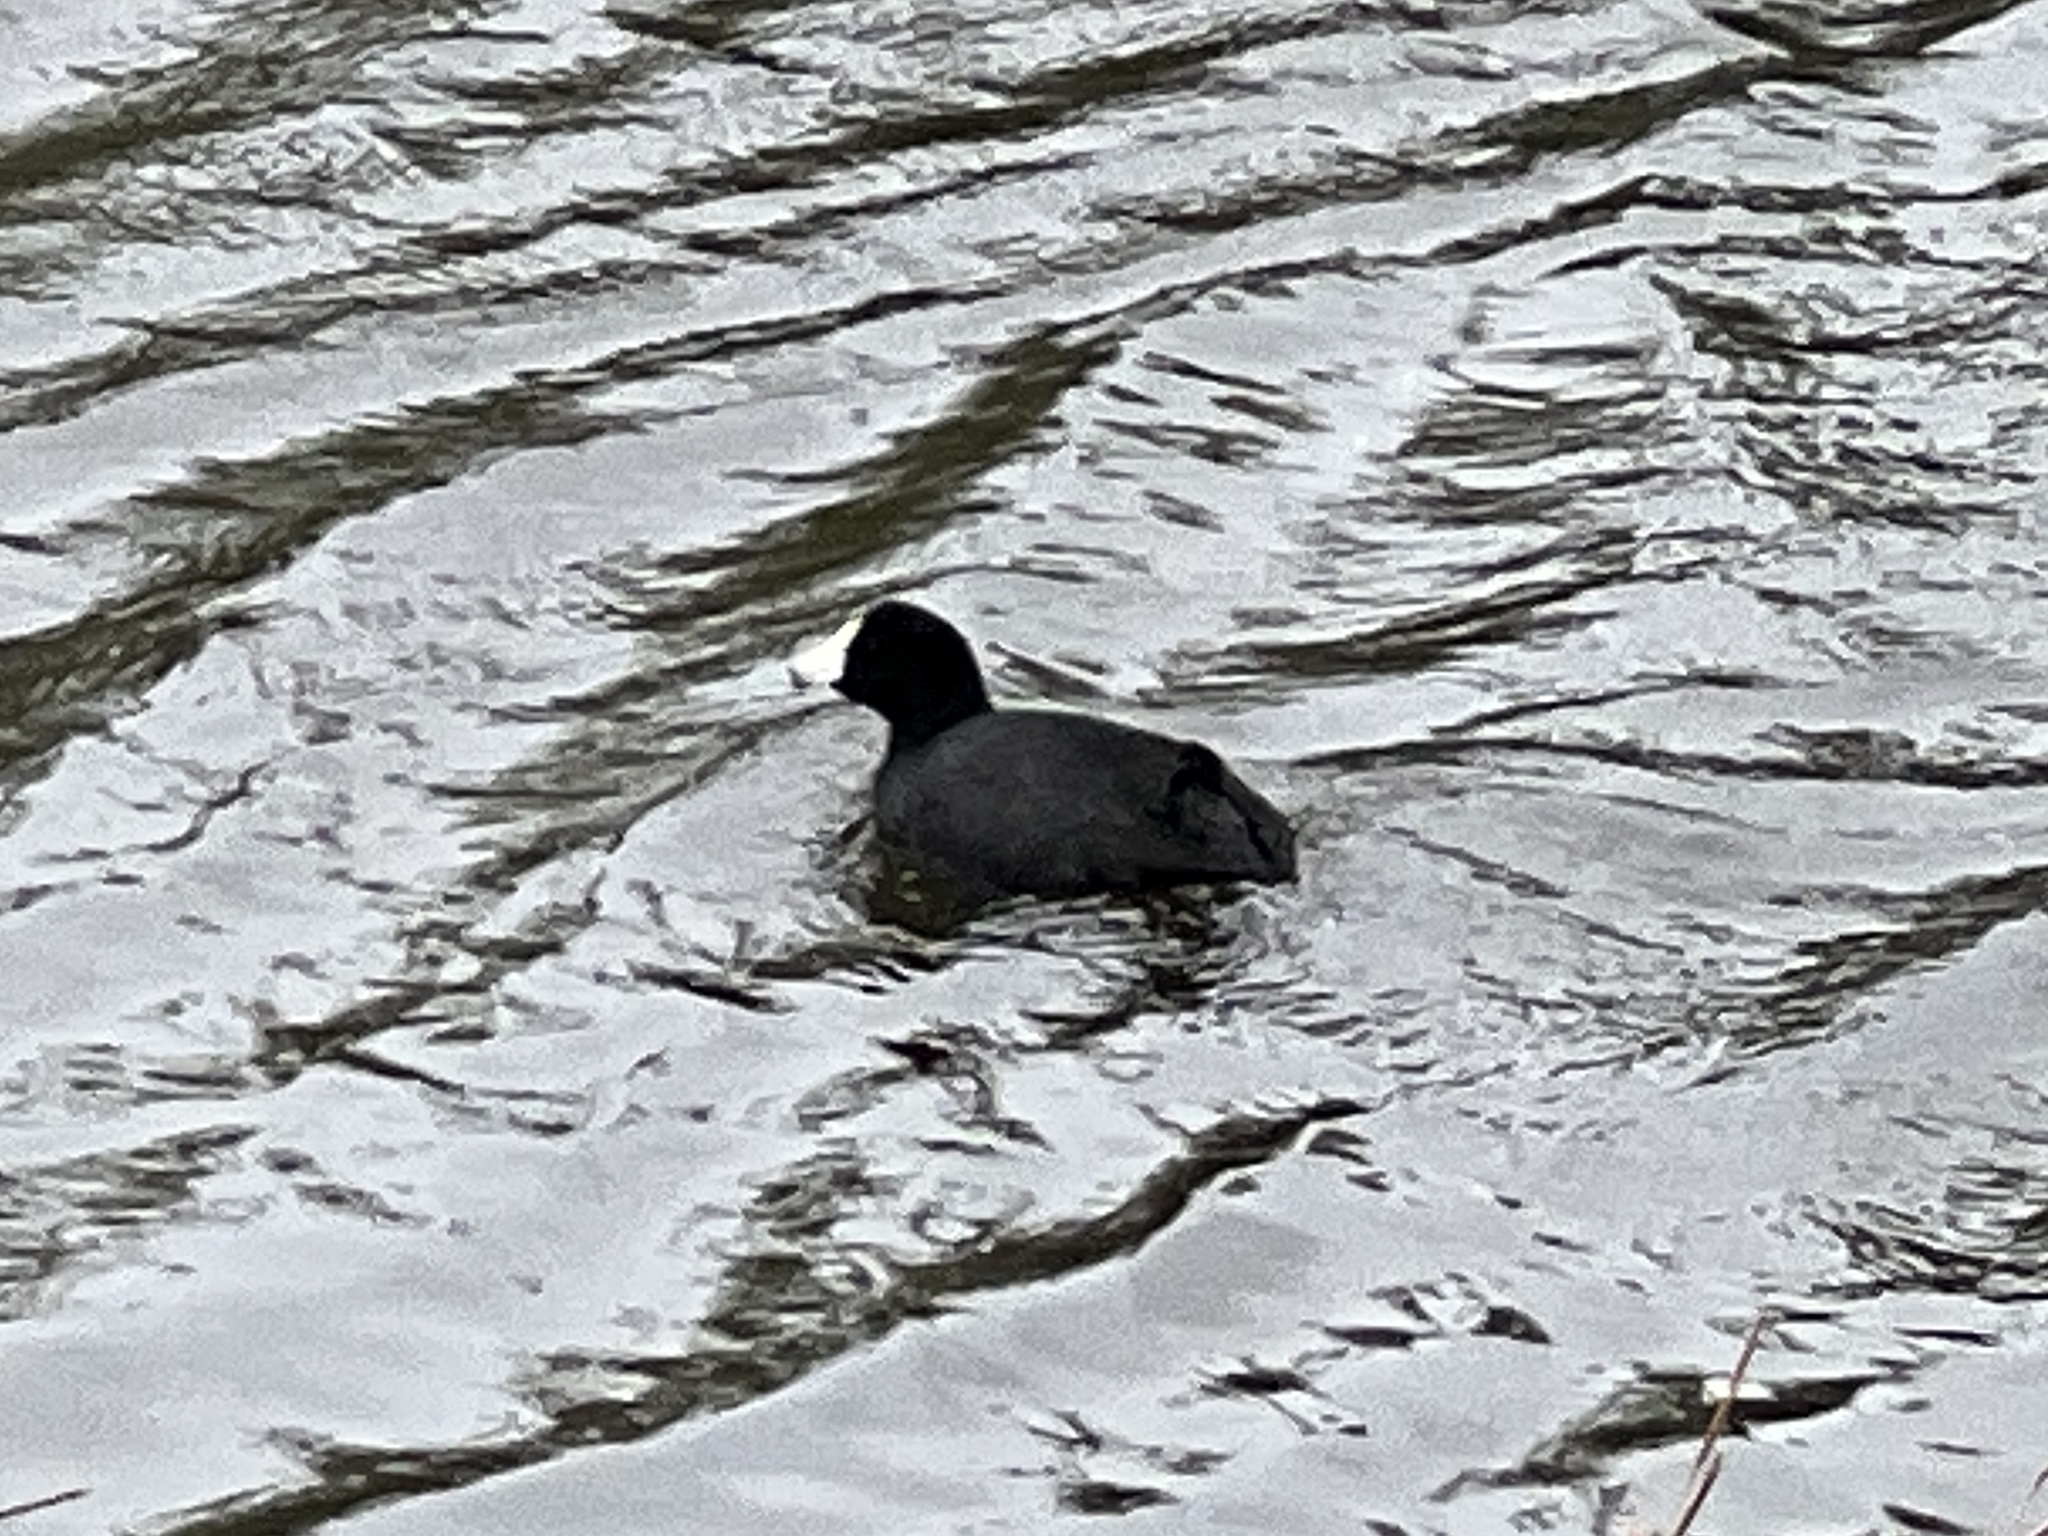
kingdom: Animalia
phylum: Chordata
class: Aves
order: Gruiformes
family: Rallidae
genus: Fulica
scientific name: Fulica americana
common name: American coot
